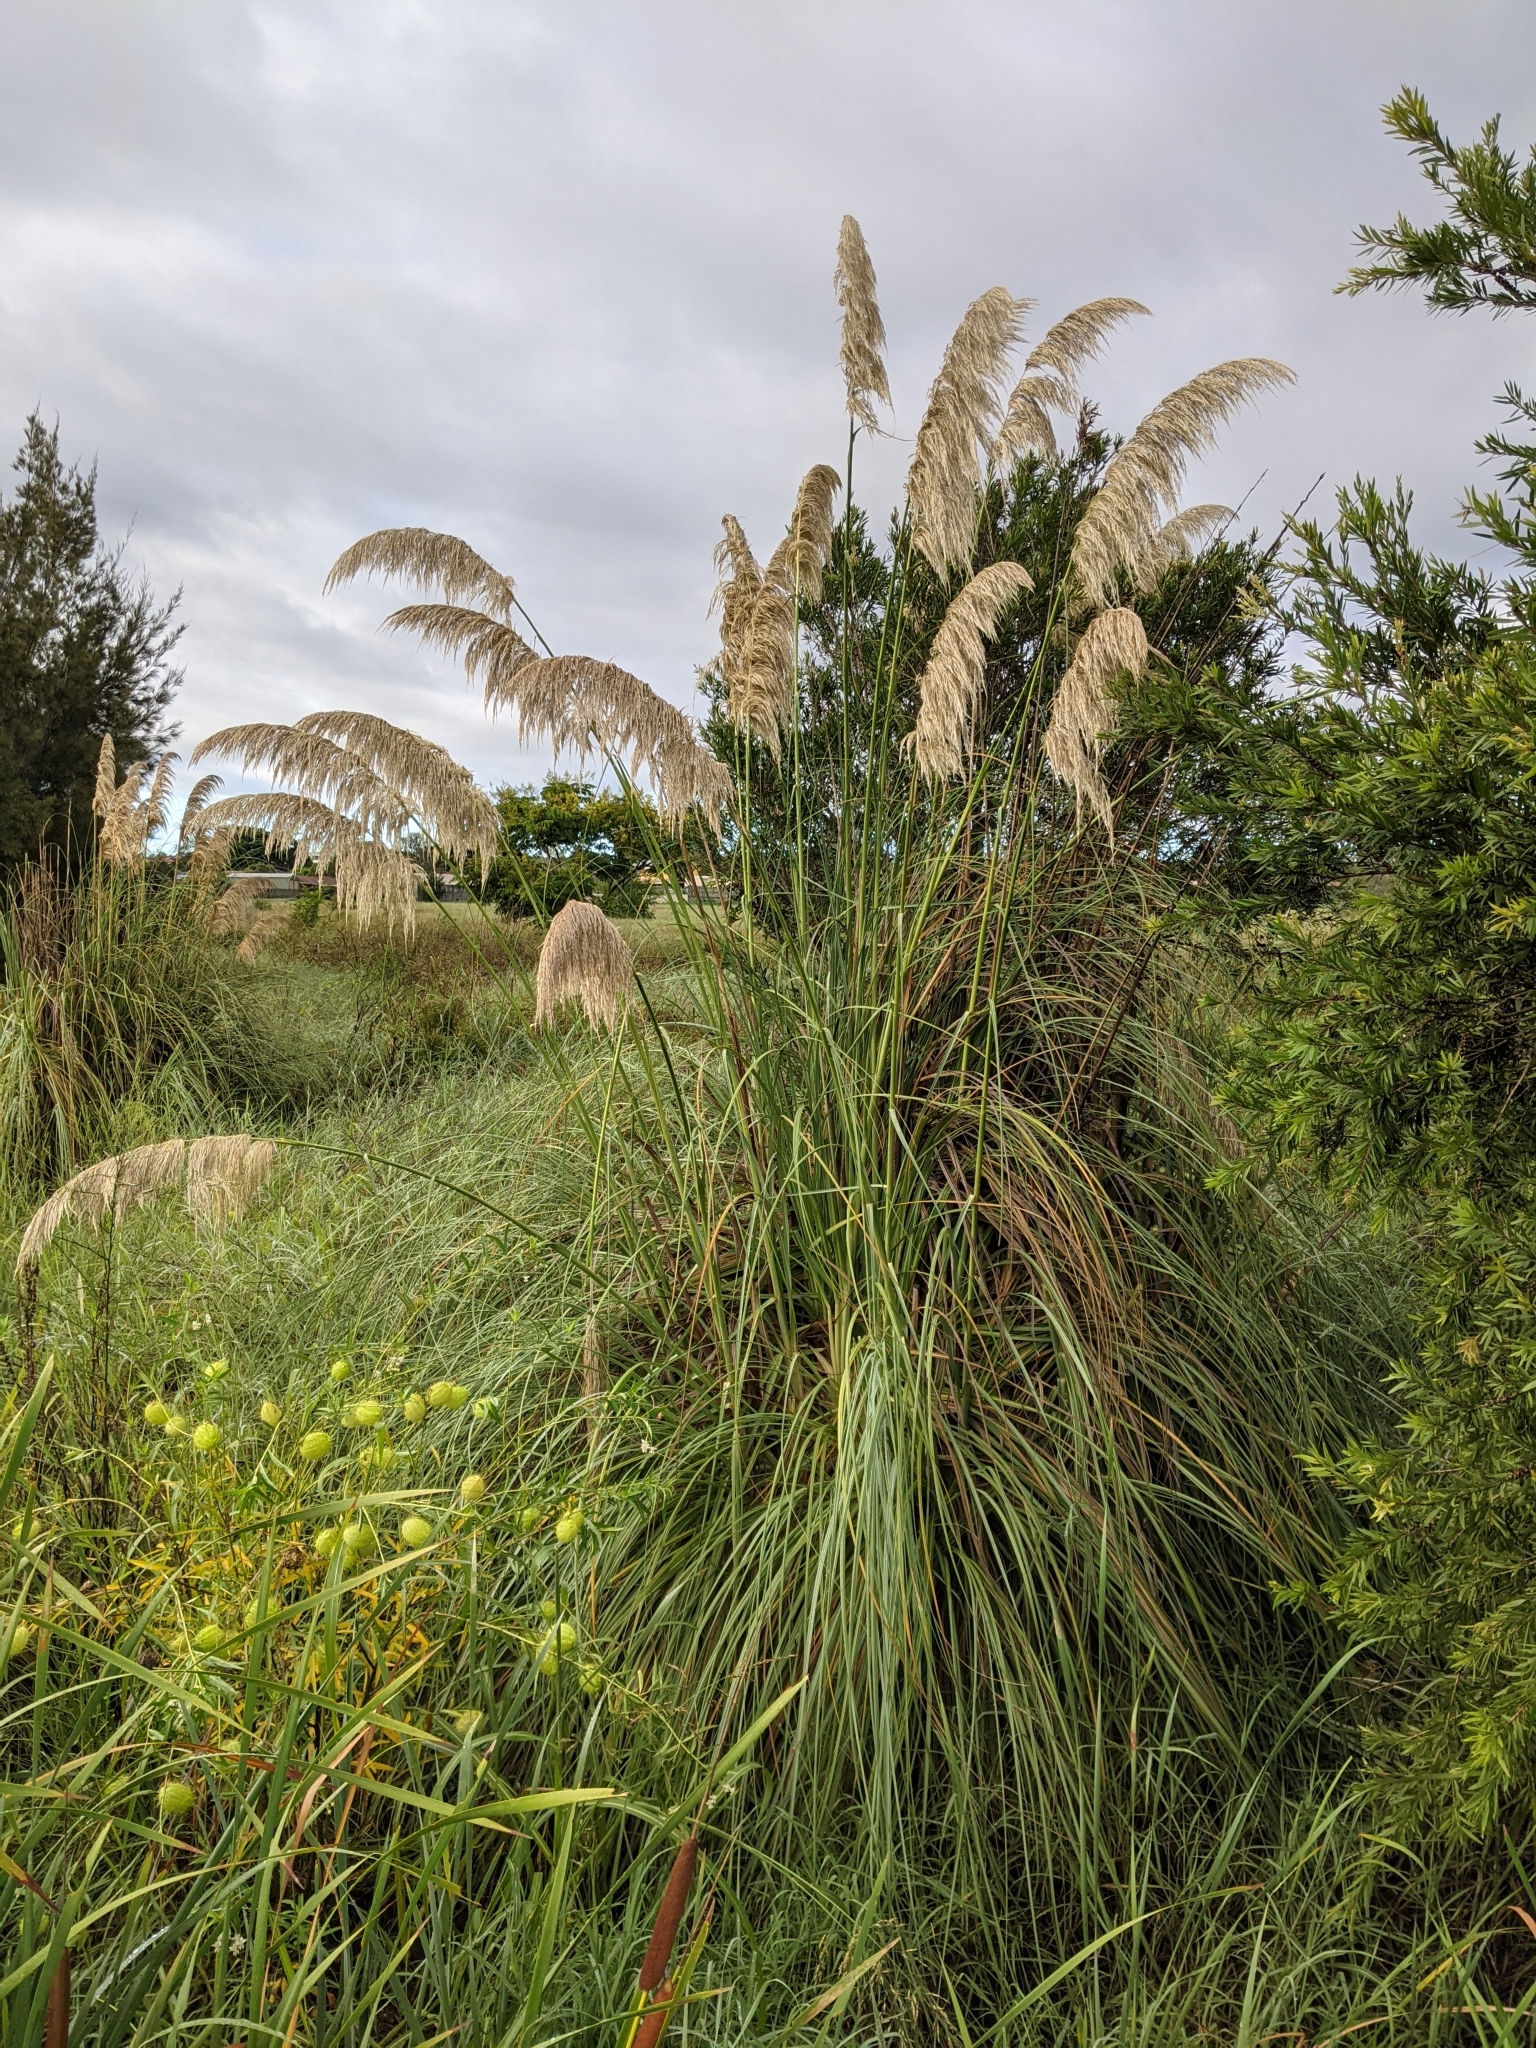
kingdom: Plantae
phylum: Tracheophyta
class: Liliopsida
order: Poales
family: Poaceae
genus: Cortaderia
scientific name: Cortaderia selloana
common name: Uruguayan pampas grass
